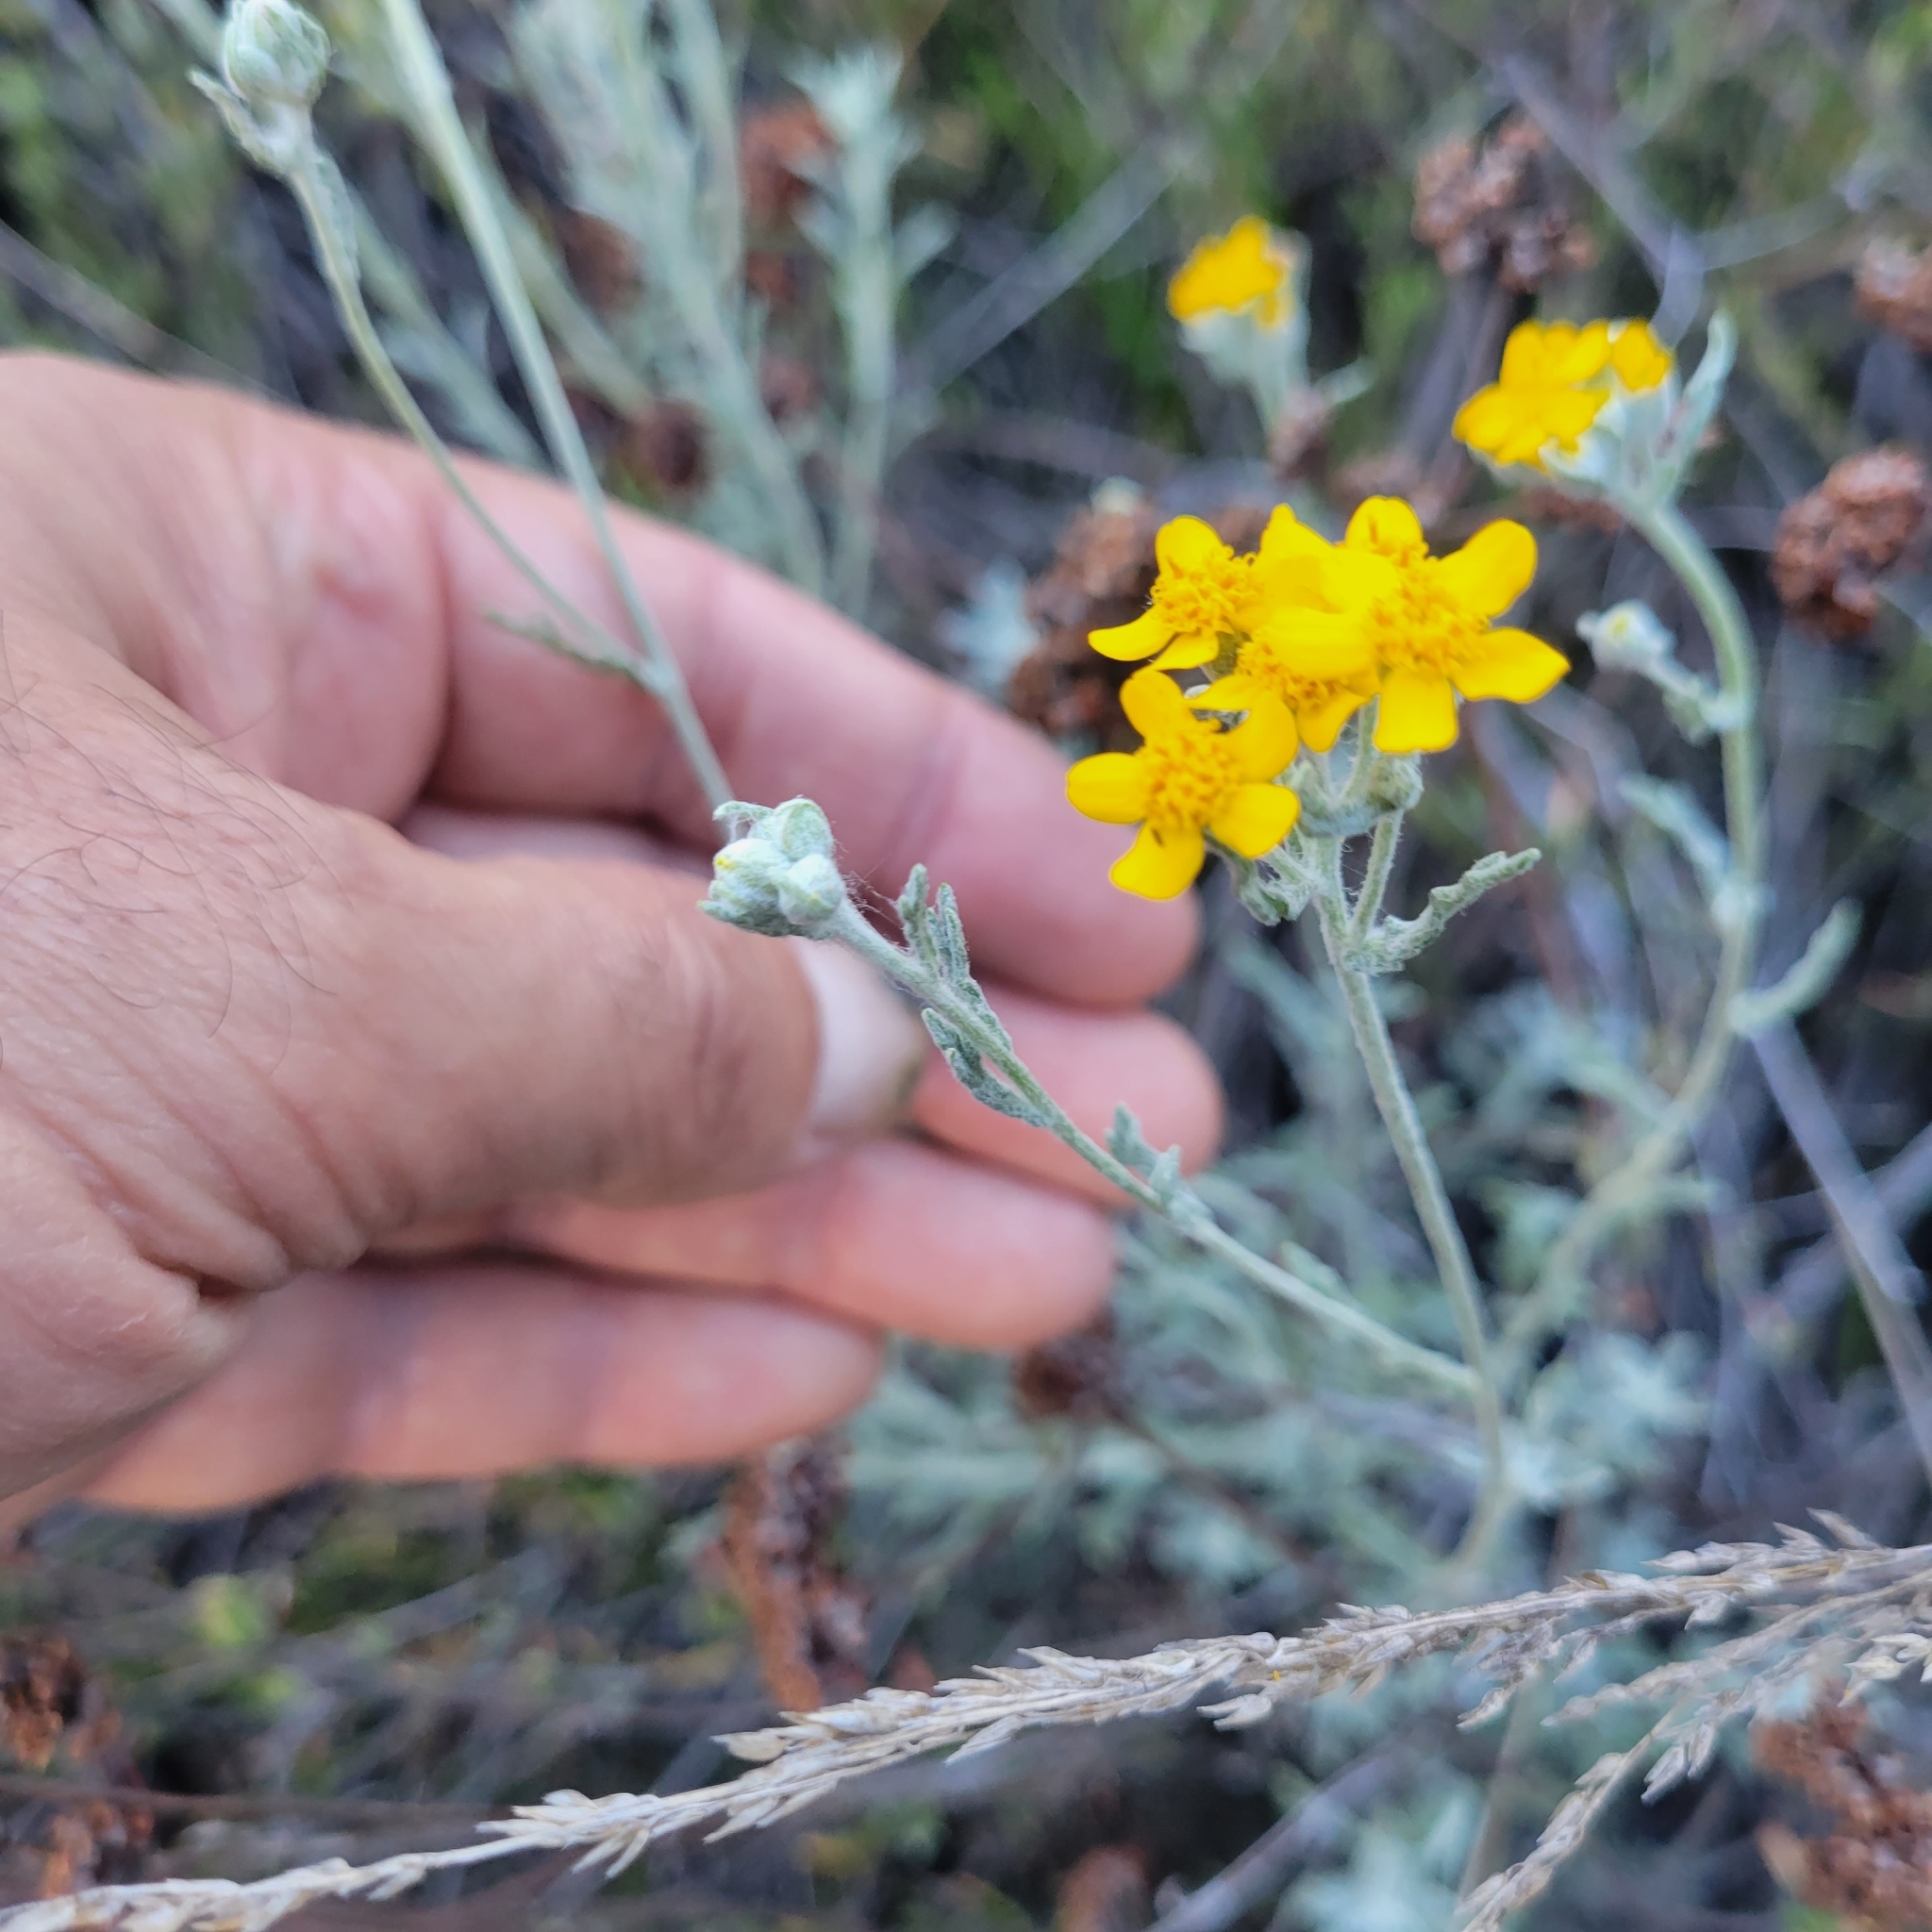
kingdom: Plantae
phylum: Tracheophyta
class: Magnoliopsida
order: Asterales
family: Asteraceae
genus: Eriophyllum
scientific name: Eriophyllum confertiflorum
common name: Golden-yarrow
